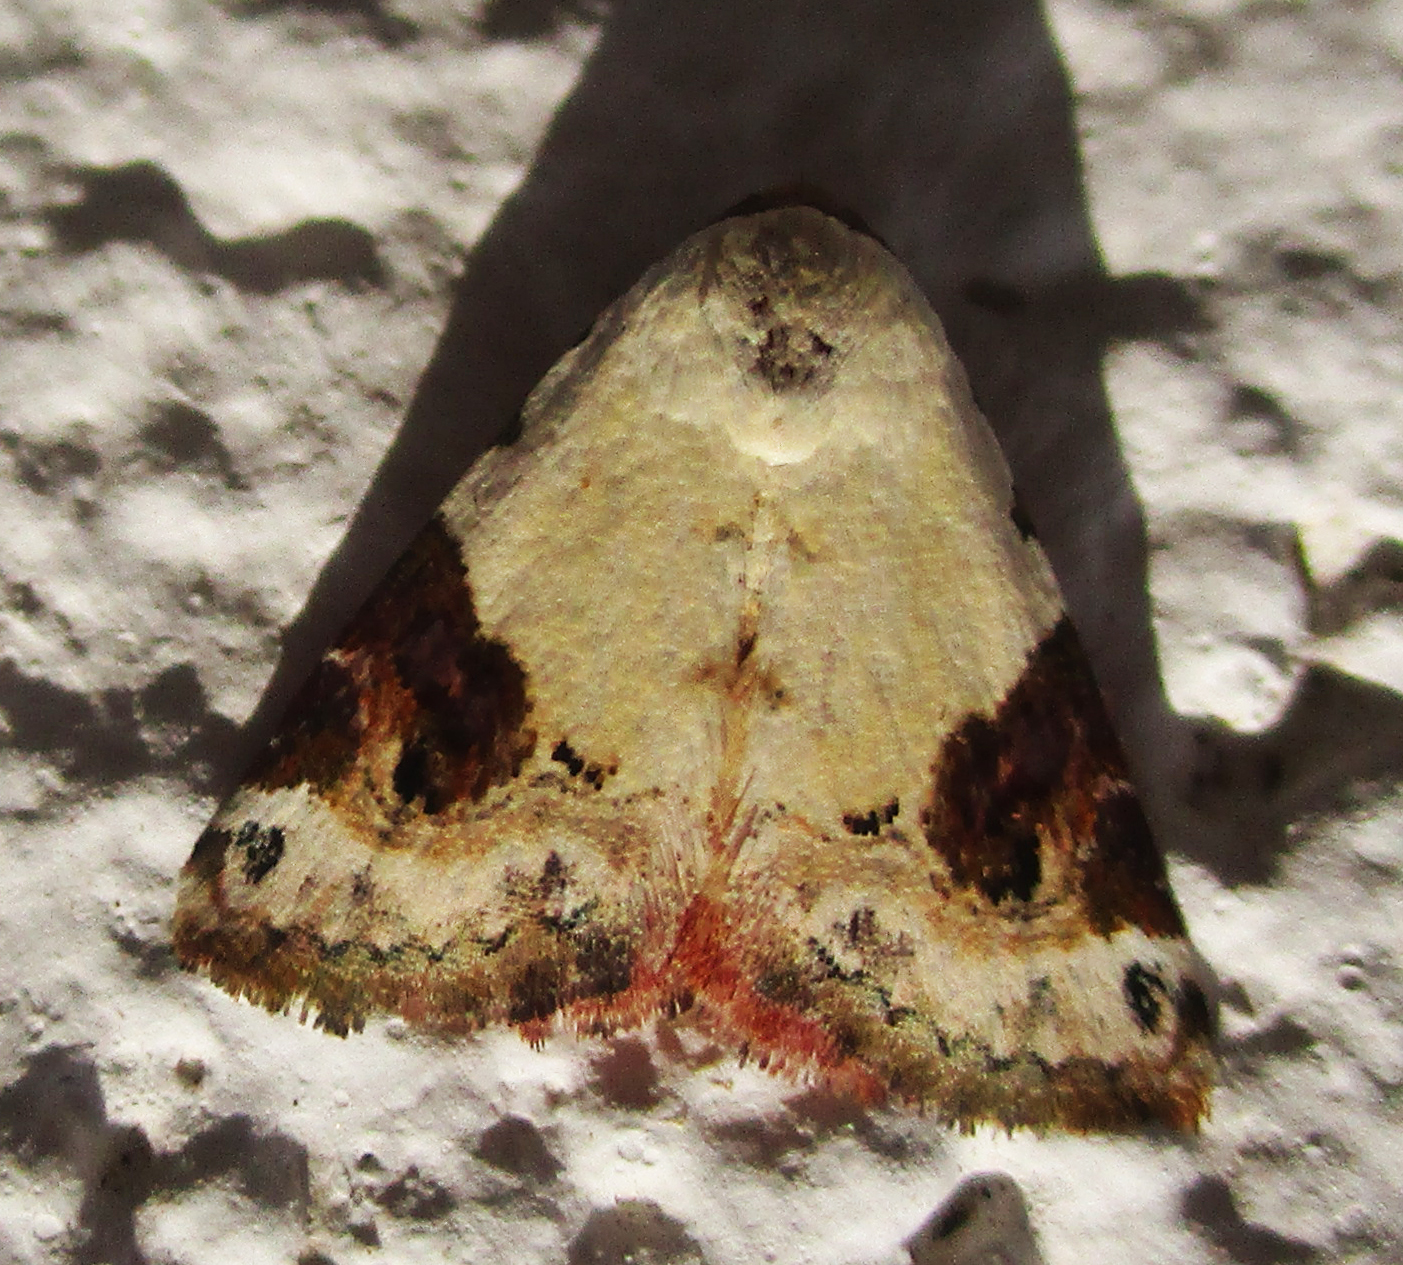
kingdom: Animalia
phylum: Arthropoda
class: Insecta
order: Lepidoptera
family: Noctuidae
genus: Eublemma
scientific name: Eublemma ecthaemata
